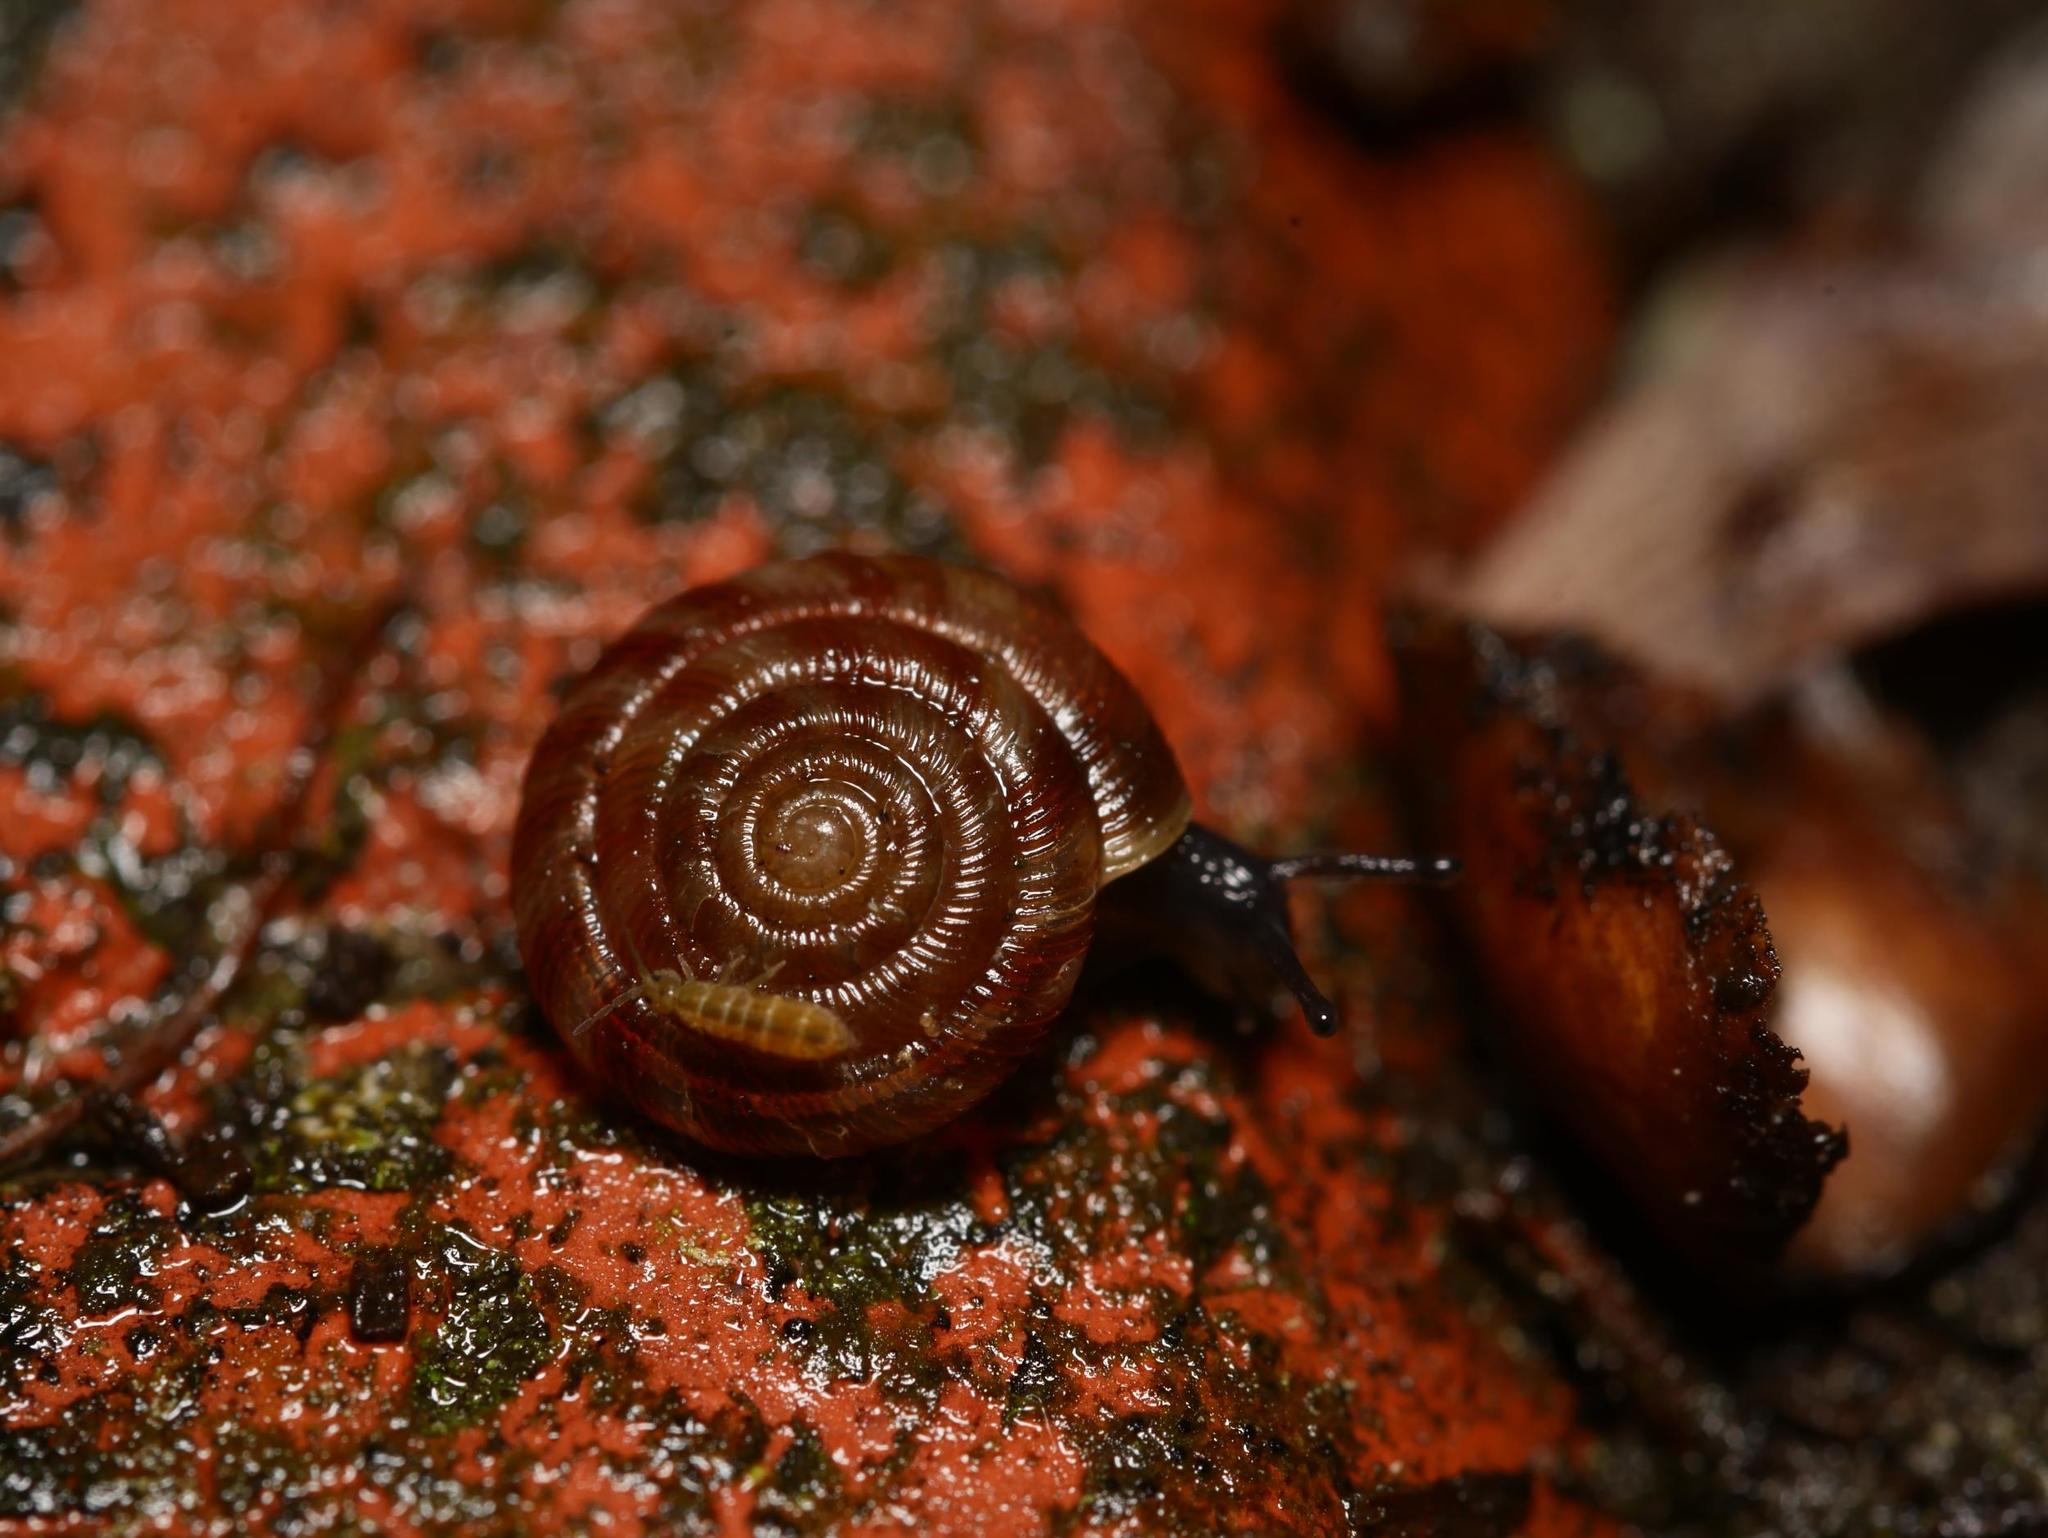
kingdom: Animalia
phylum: Mollusca
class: Gastropoda
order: Stylommatophora
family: Discidae
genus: Discus
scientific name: Discus rotundatus
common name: Rounded snail
